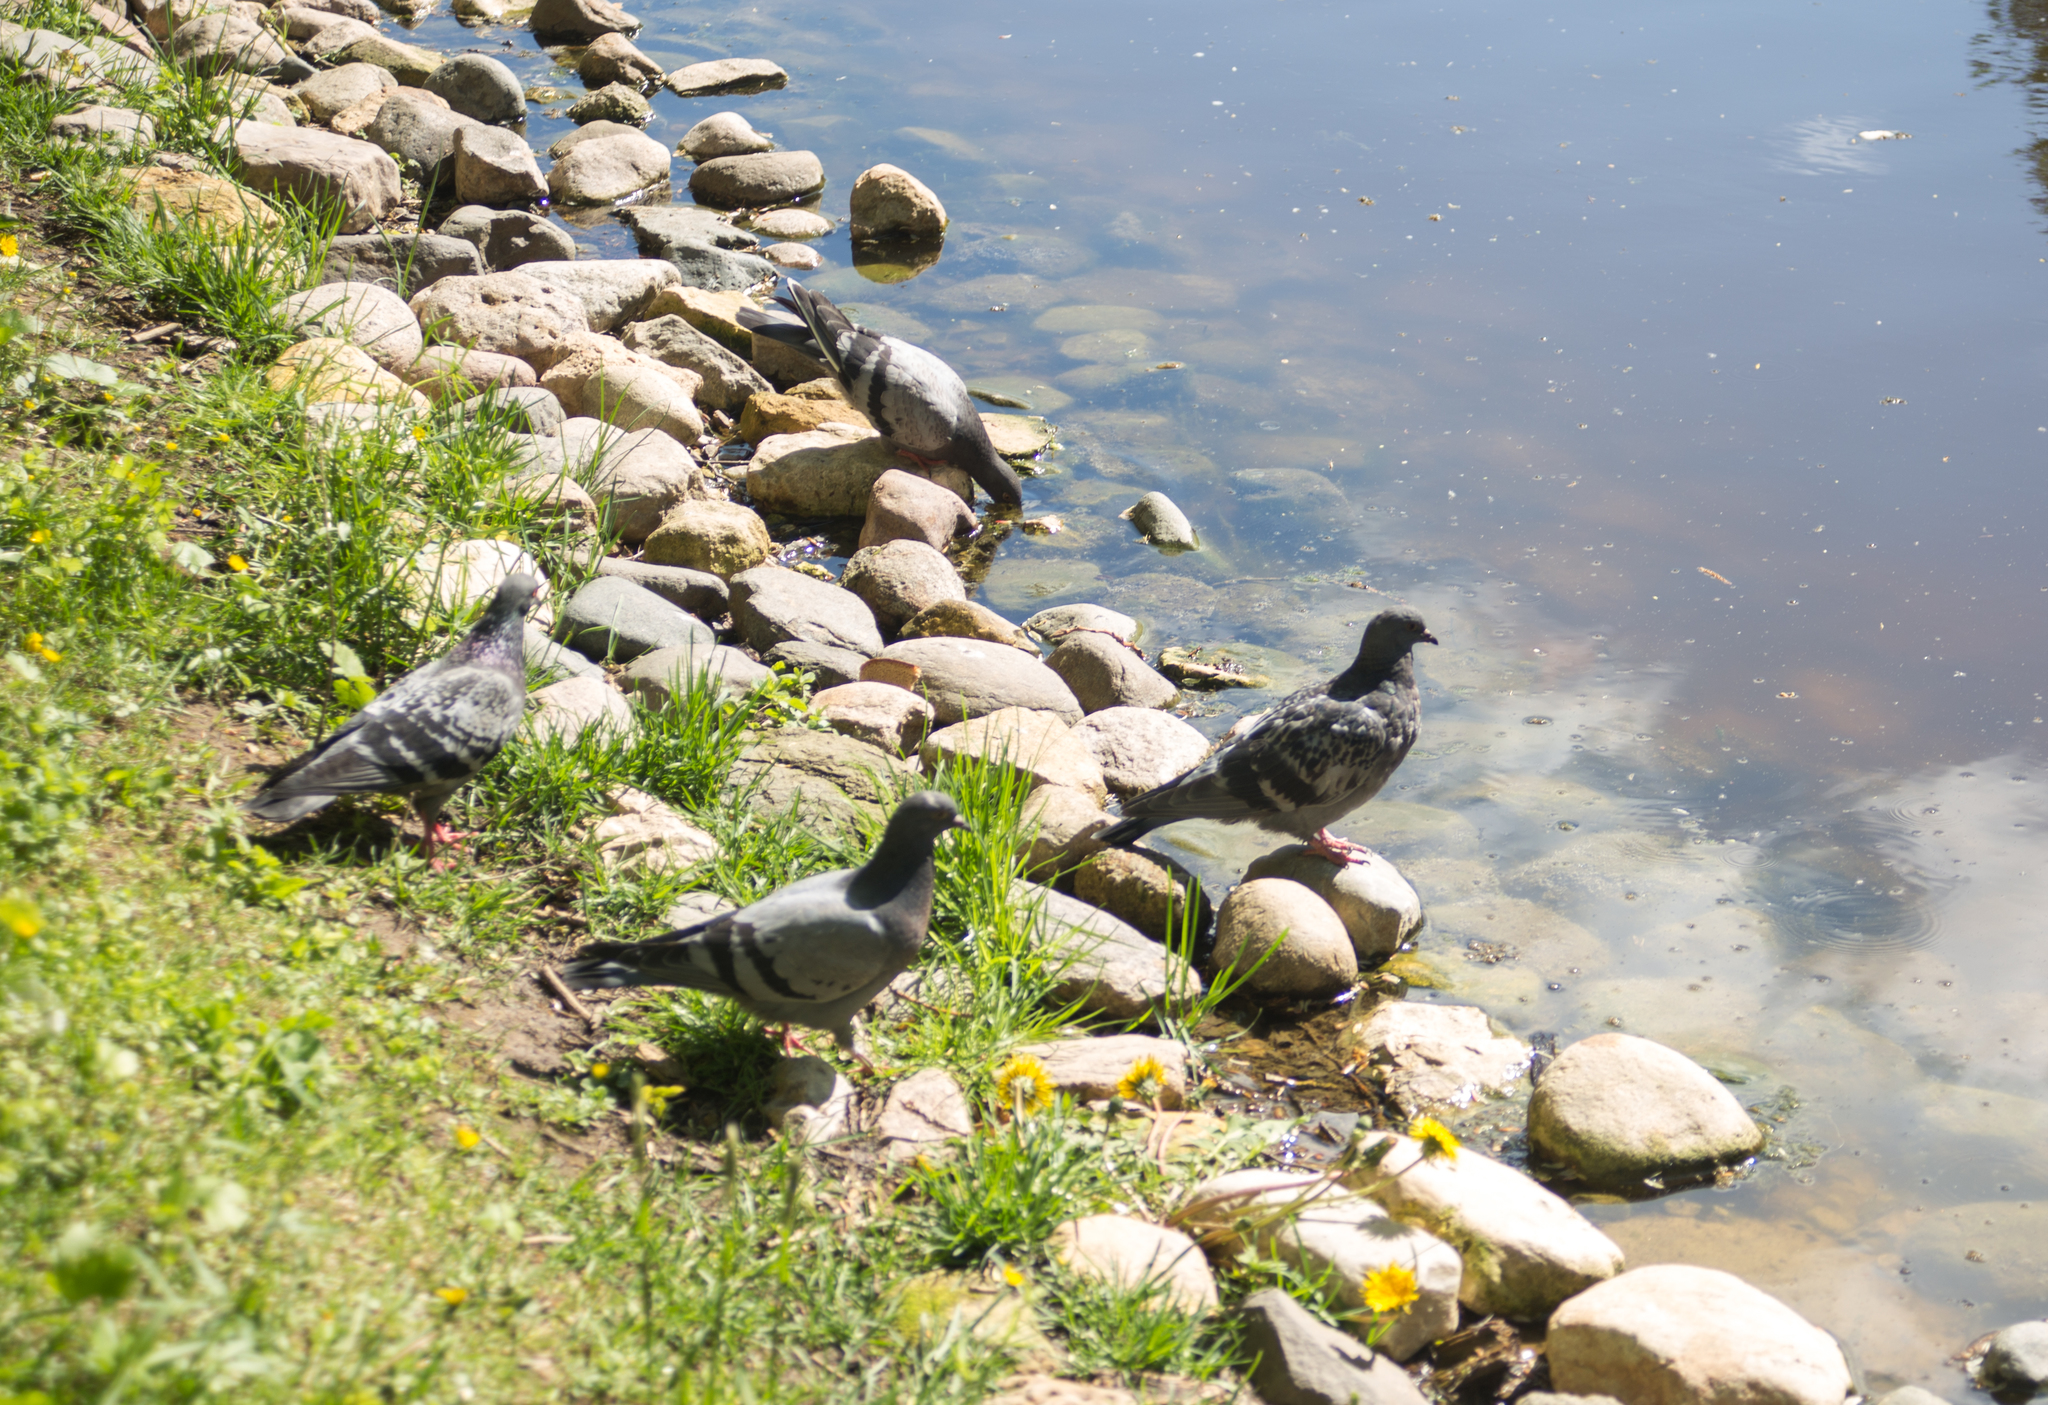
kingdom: Animalia
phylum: Chordata
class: Aves
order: Columbiformes
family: Columbidae
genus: Columba
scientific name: Columba livia
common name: Rock pigeon
